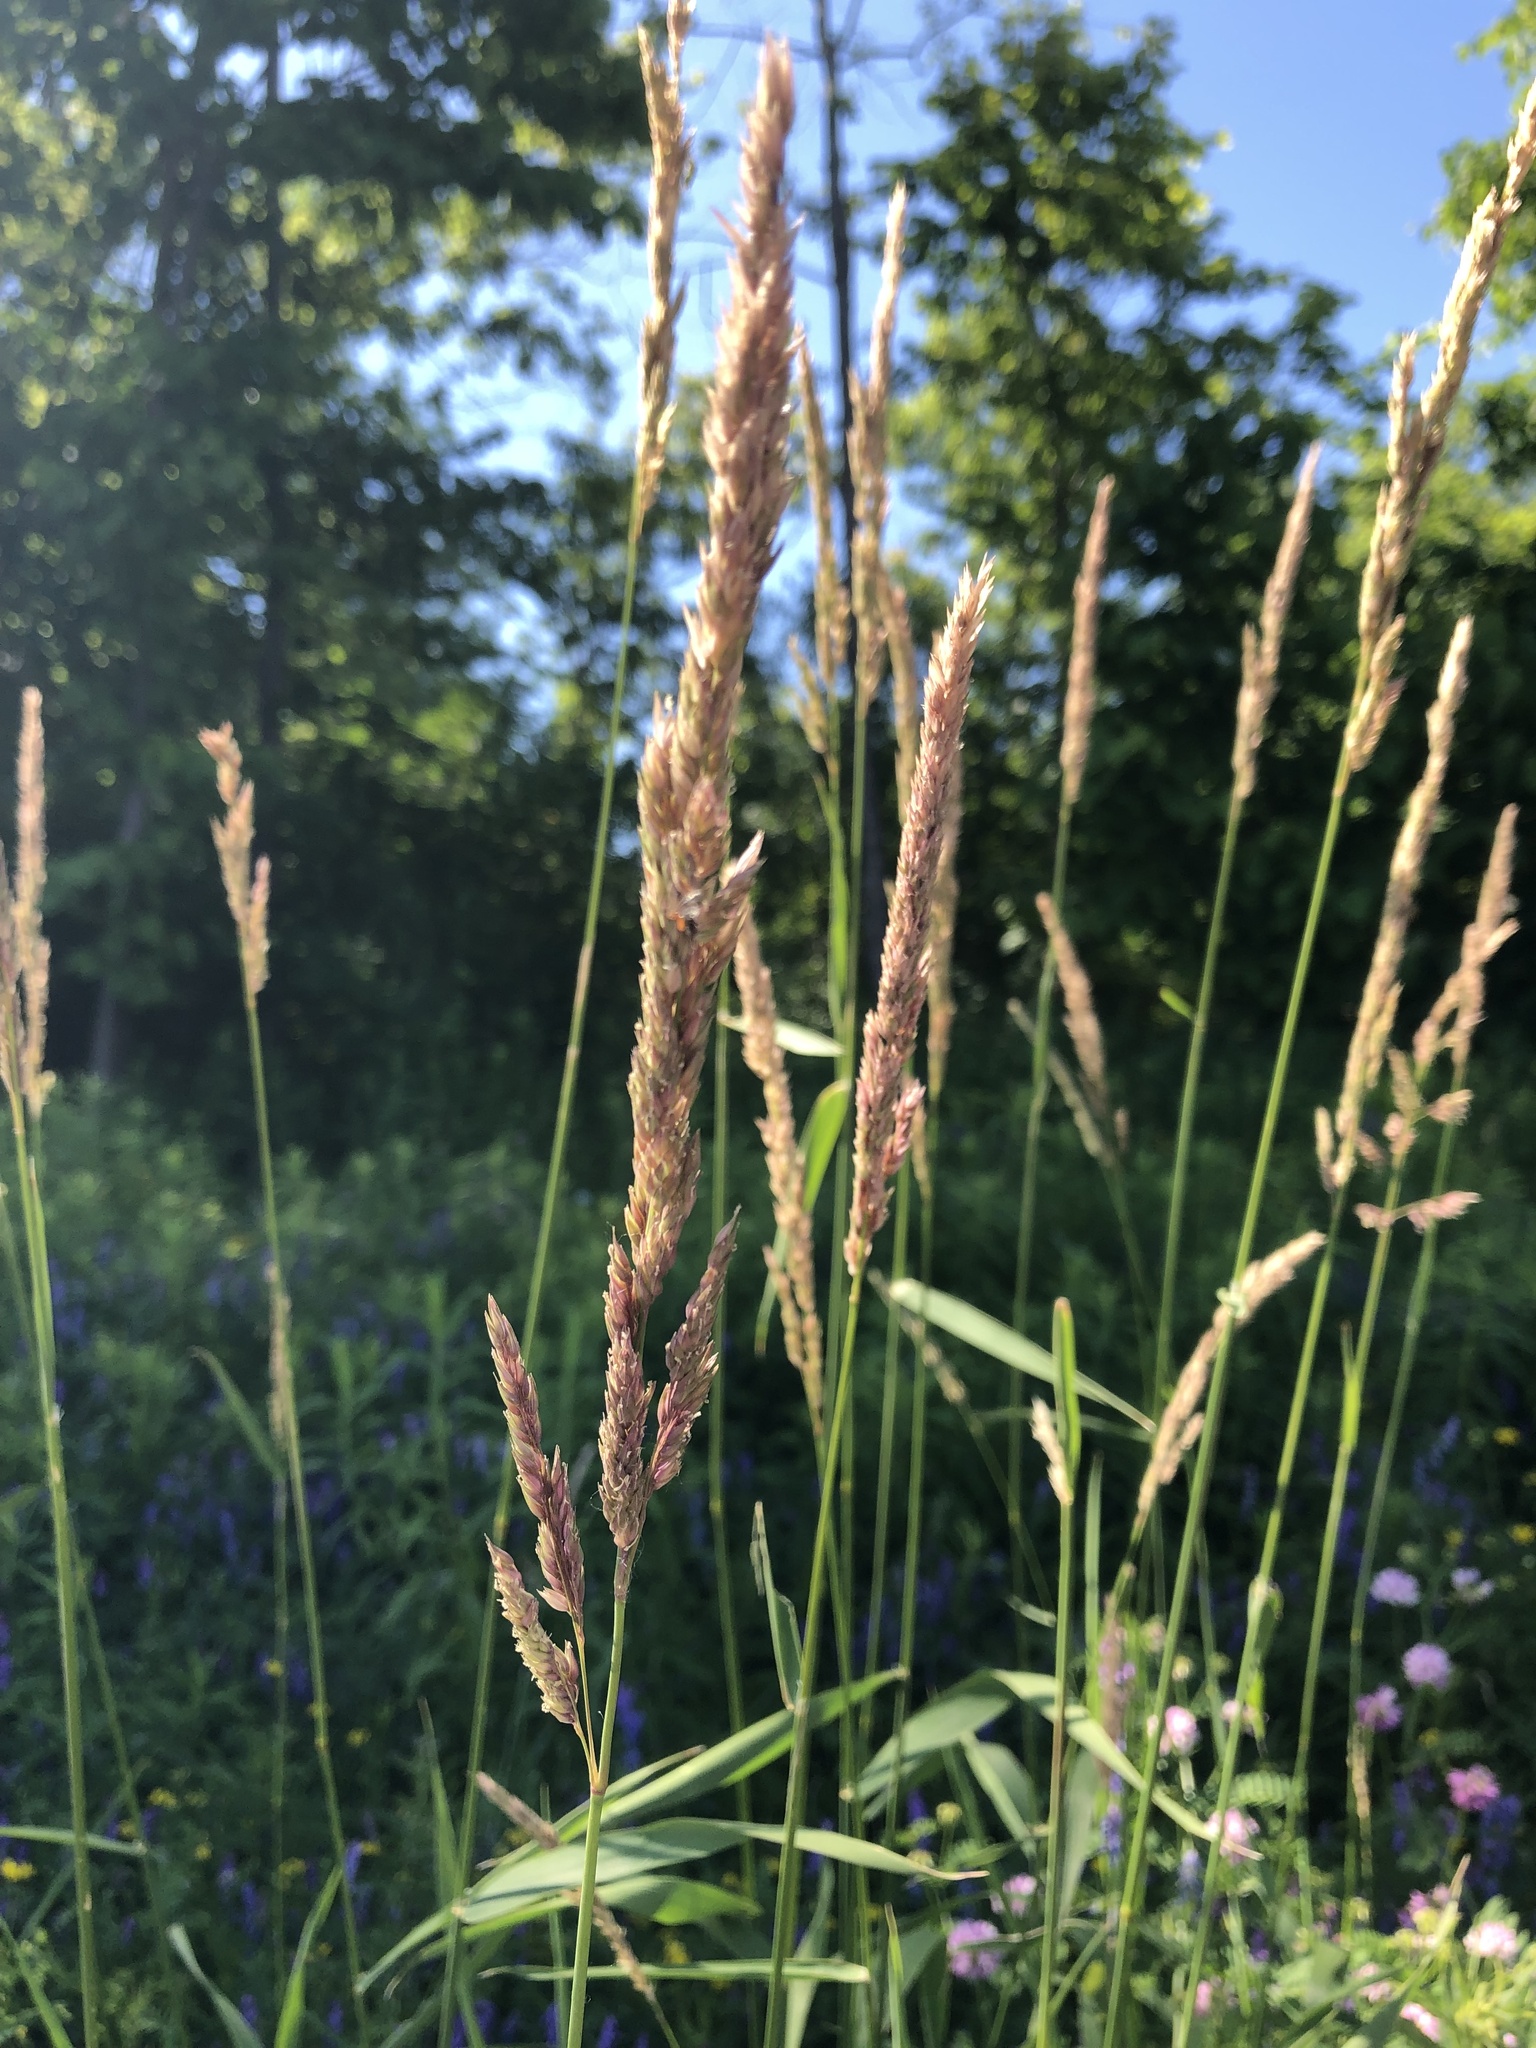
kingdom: Plantae
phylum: Tracheophyta
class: Liliopsida
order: Poales
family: Poaceae
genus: Phalaris
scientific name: Phalaris arundinacea
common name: Reed canary-grass
